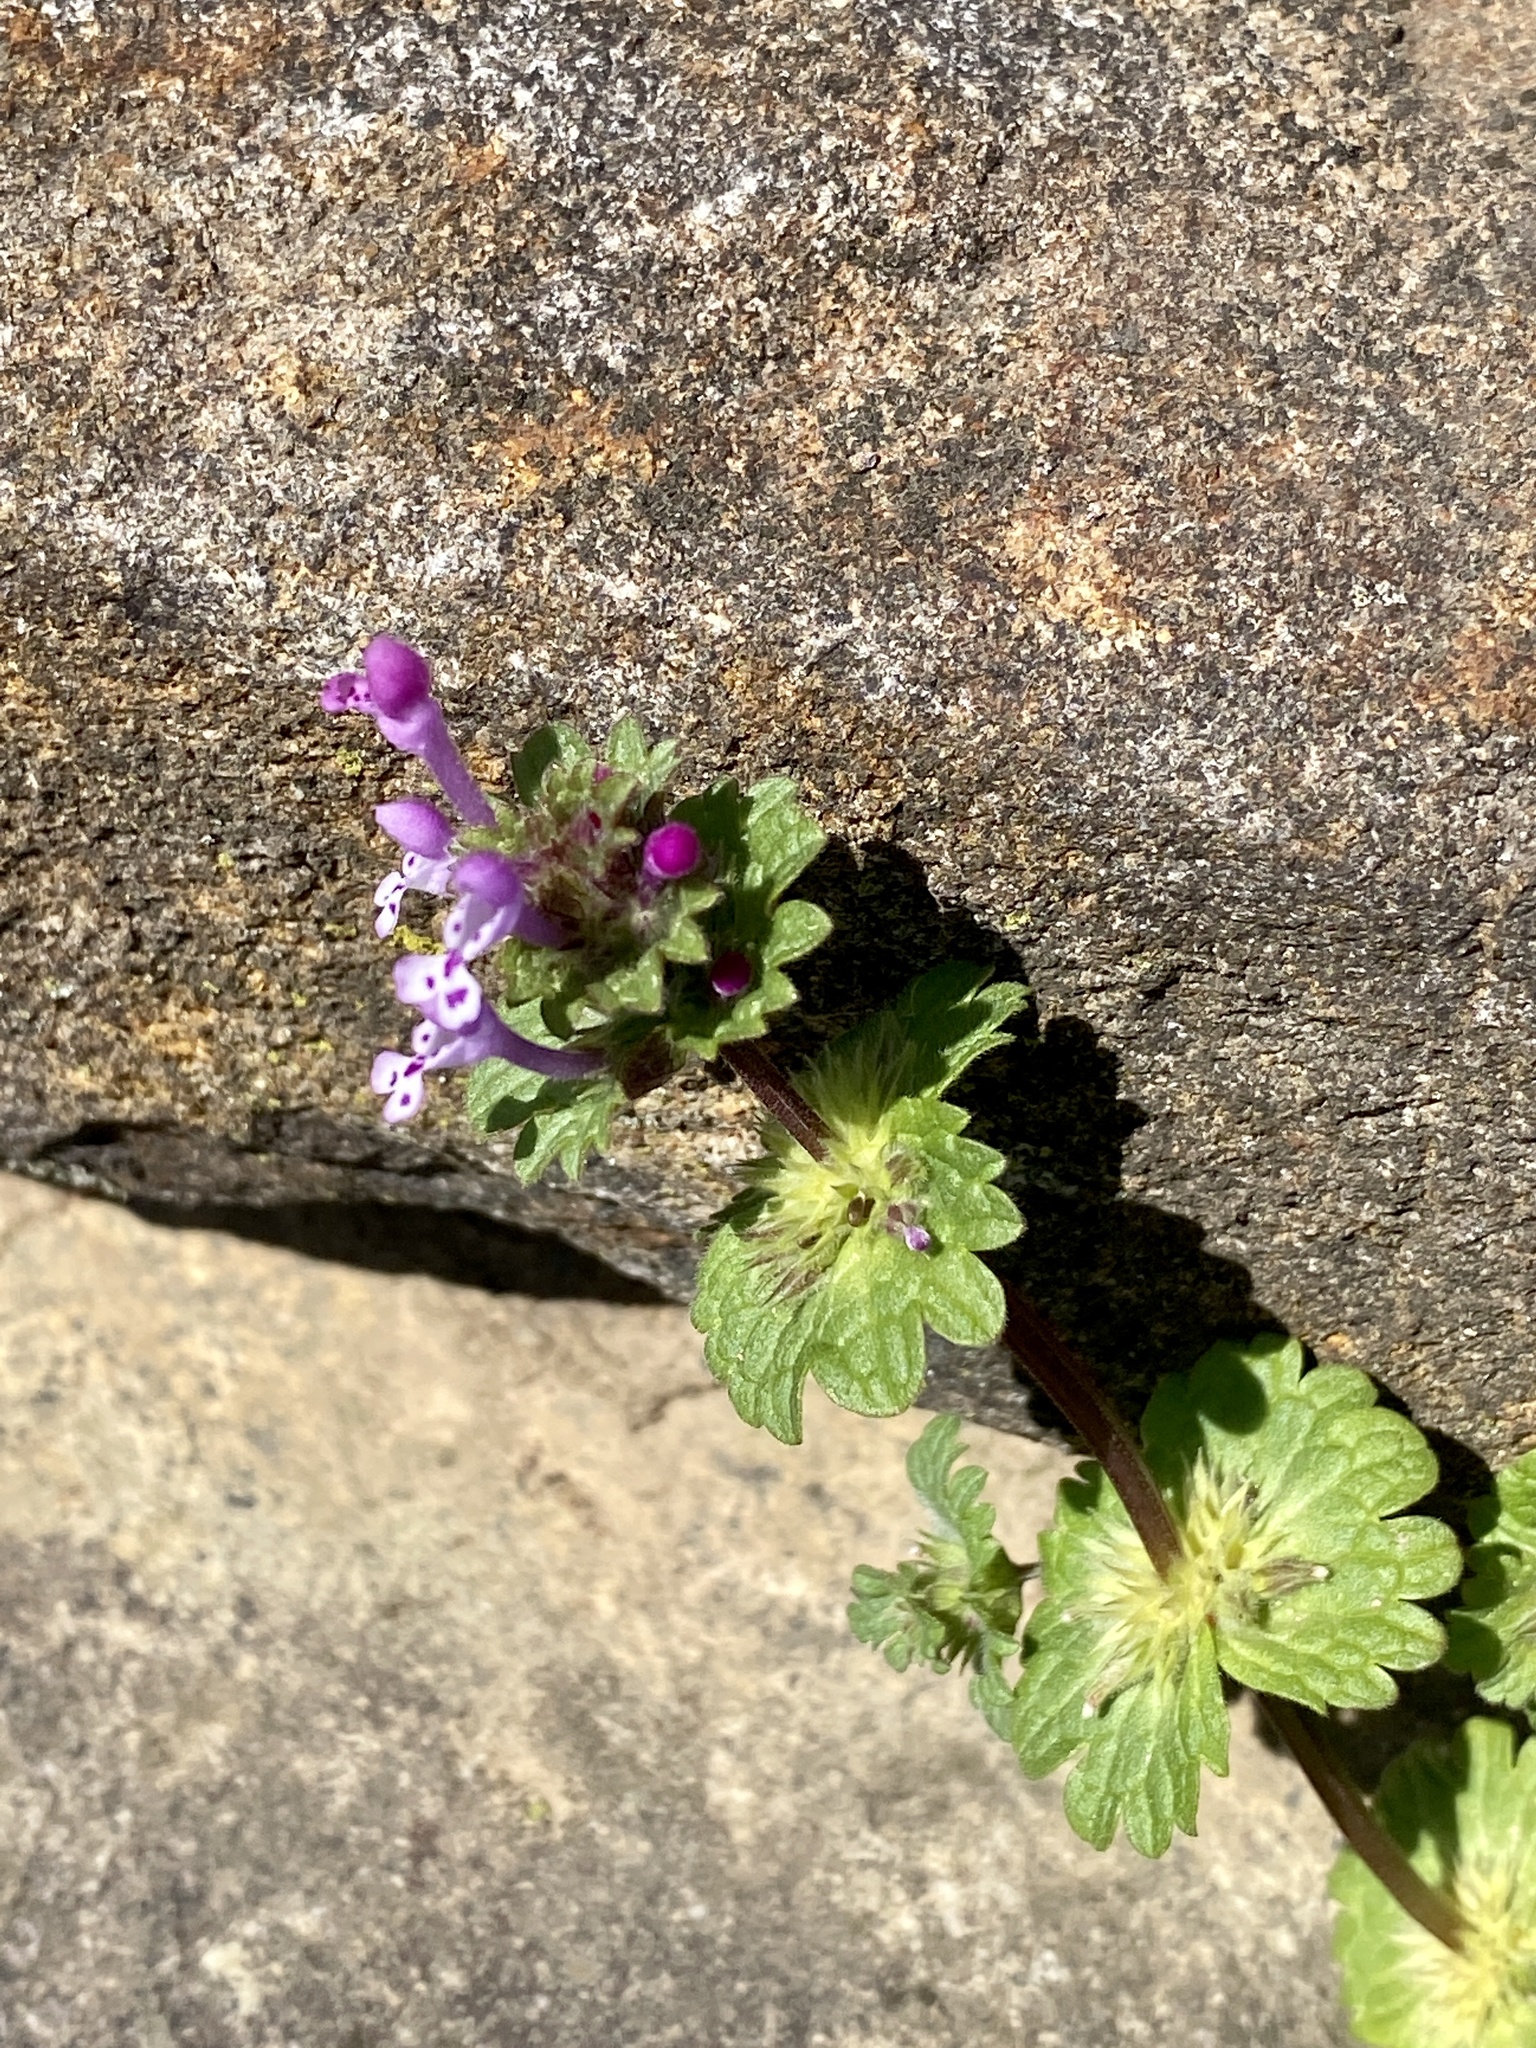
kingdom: Plantae
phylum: Tracheophyta
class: Magnoliopsida
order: Lamiales
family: Lamiaceae
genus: Lamium
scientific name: Lamium amplexicaule
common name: Henbit dead-nettle
